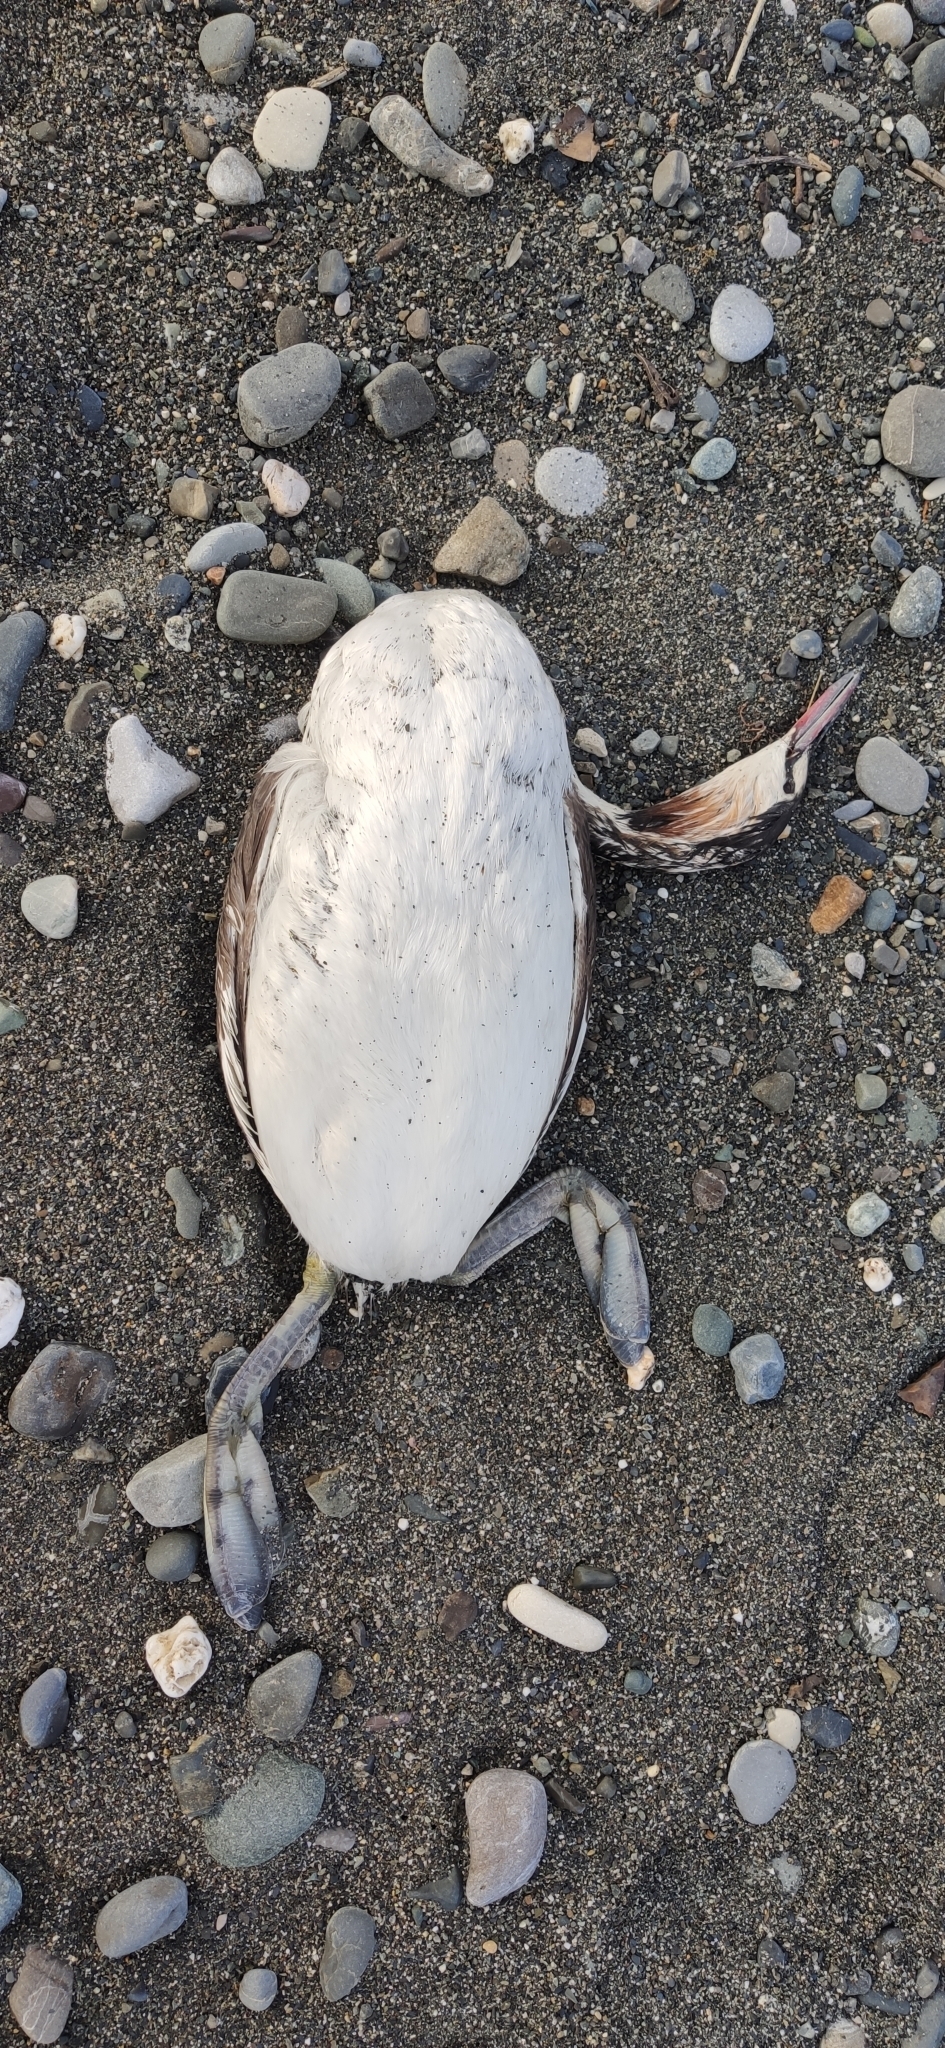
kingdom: Animalia
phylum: Chordata
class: Aves
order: Podicipediformes
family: Podicipedidae
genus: Podiceps
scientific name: Podiceps cristatus
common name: Great crested grebe
